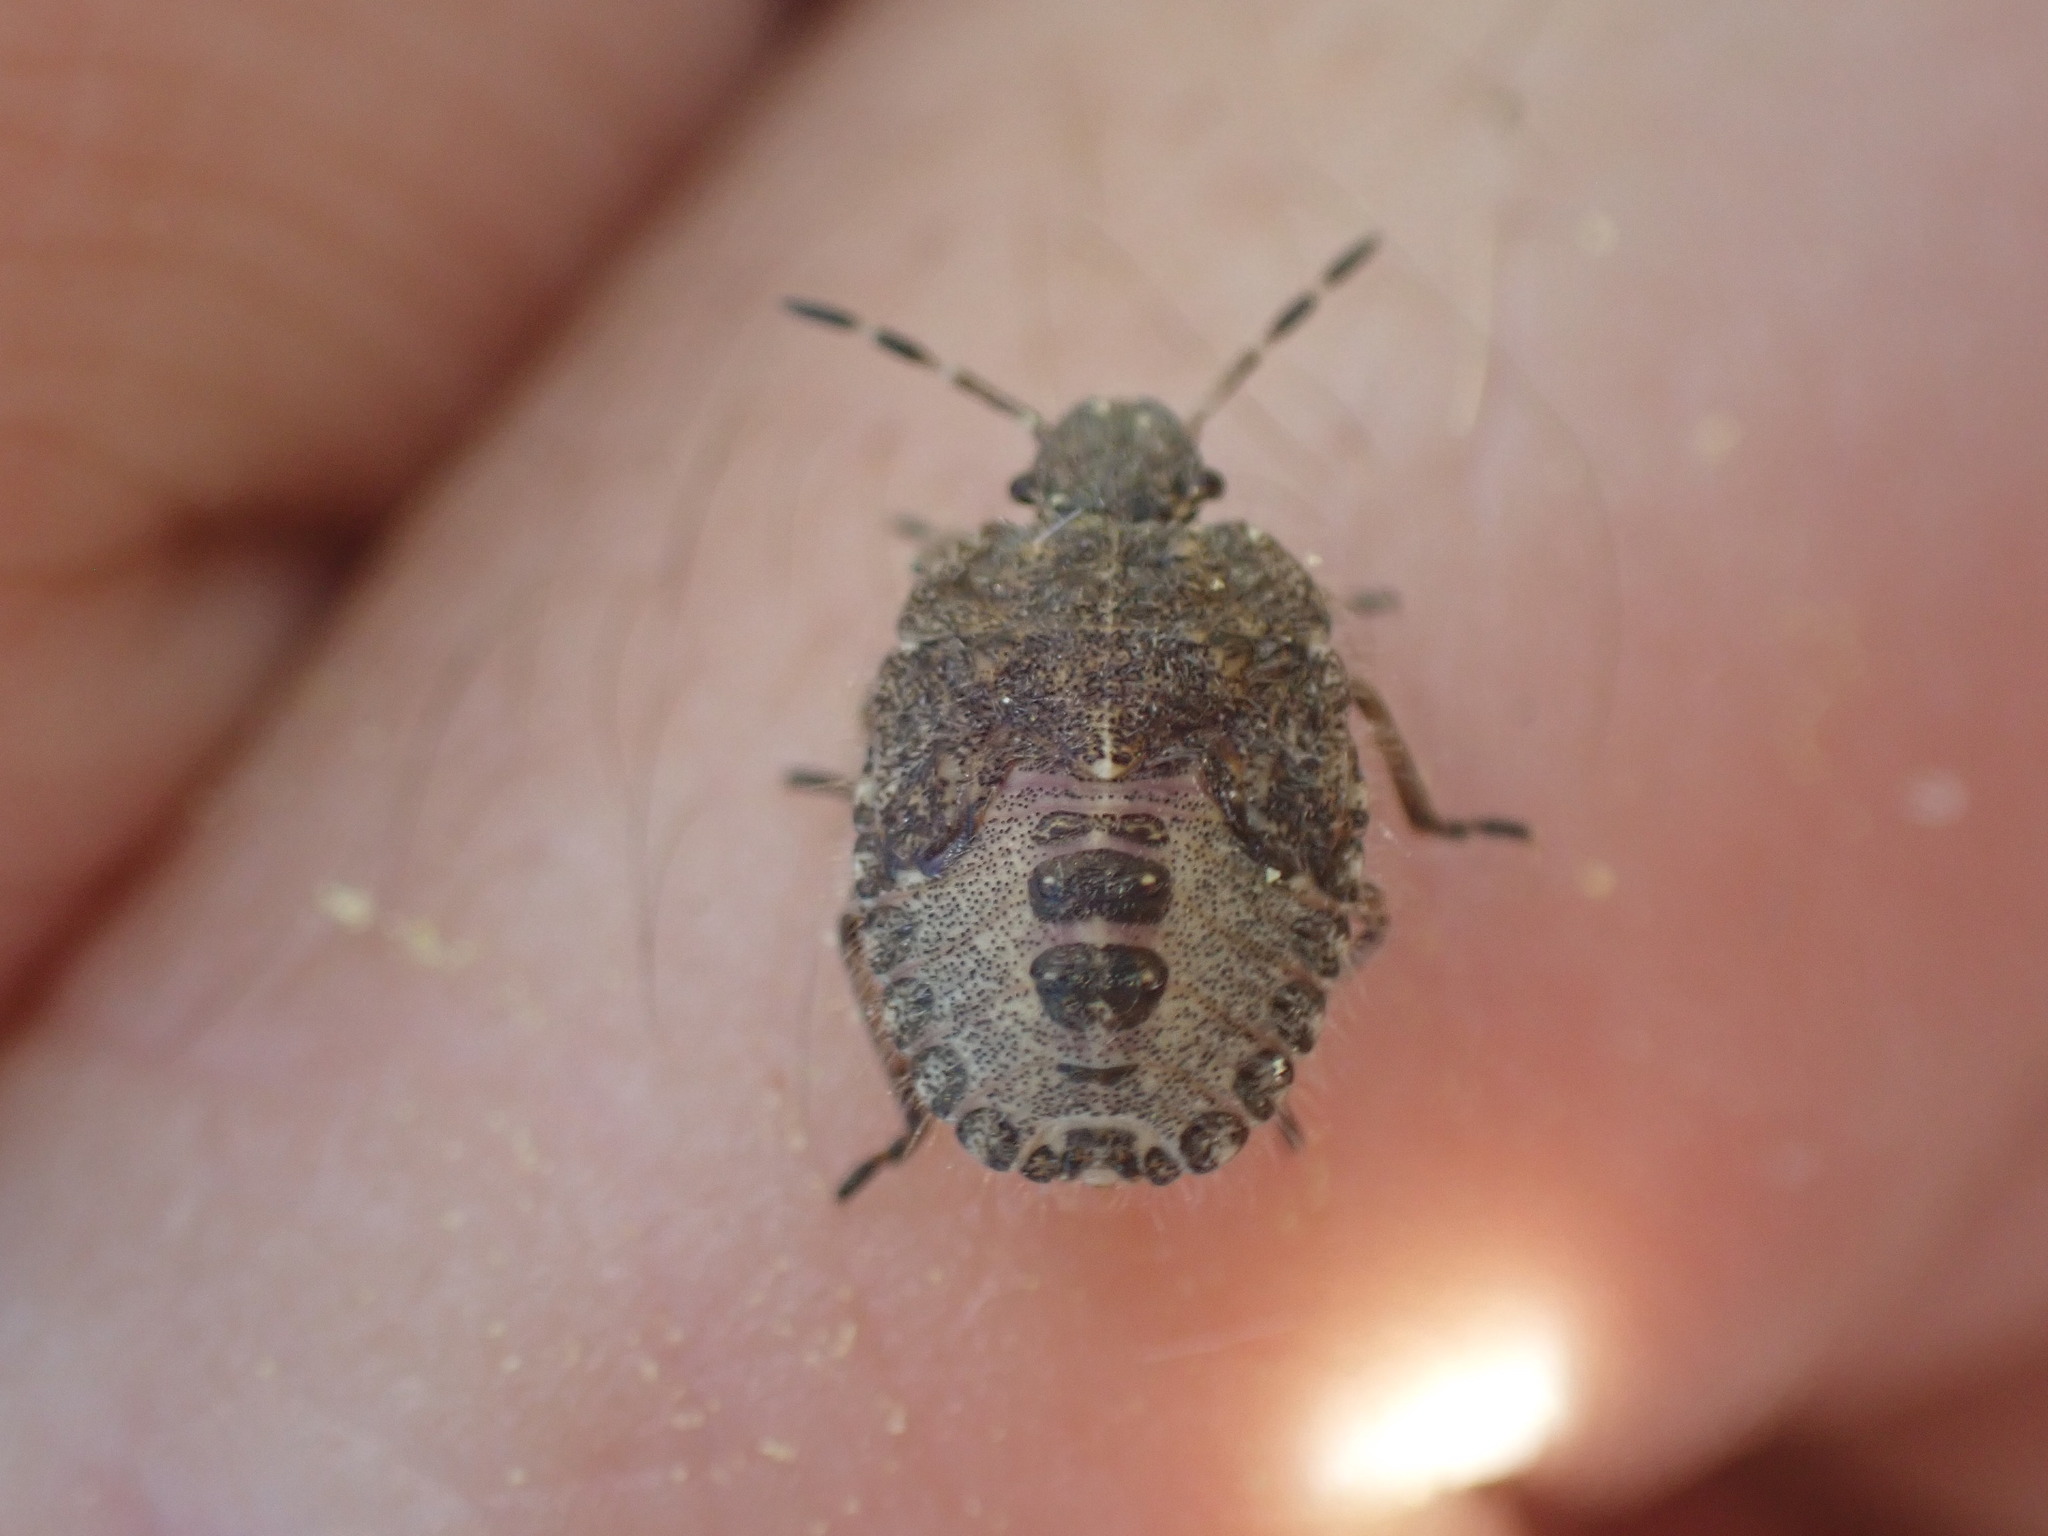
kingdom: Animalia
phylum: Arthropoda
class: Insecta
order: Hemiptera
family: Pentatomidae
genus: Dolycoris
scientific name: Dolycoris baccarum
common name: Sloe bug
